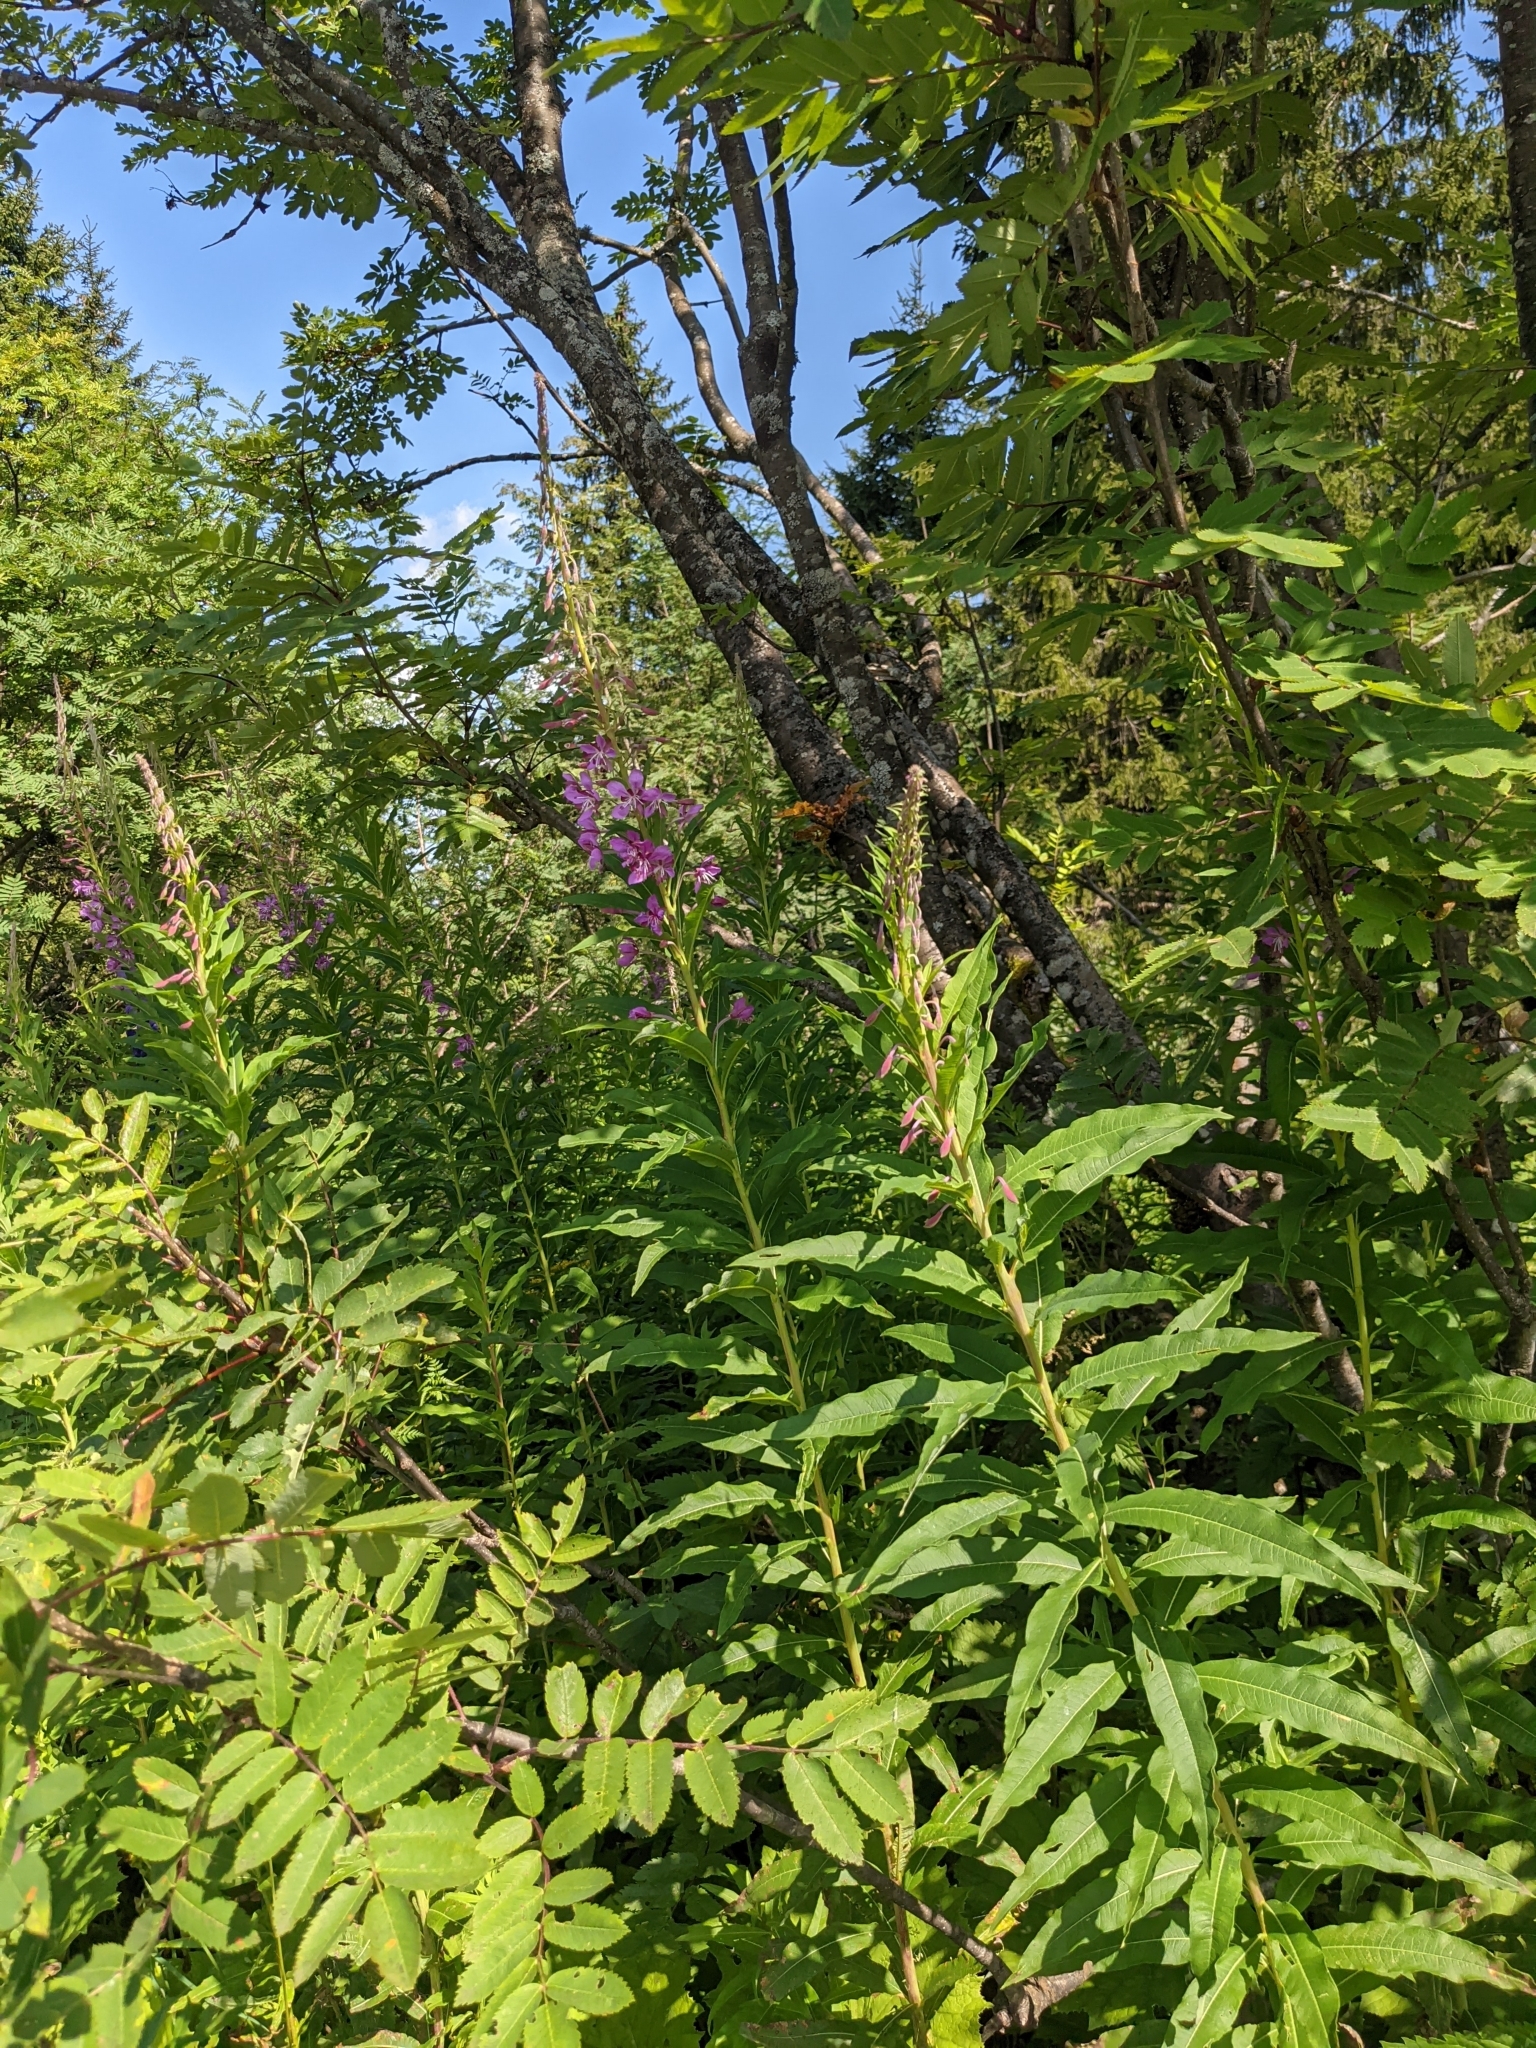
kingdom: Plantae
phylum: Tracheophyta
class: Magnoliopsida
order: Myrtales
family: Onagraceae
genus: Chamaenerion
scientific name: Chamaenerion angustifolium
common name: Fireweed
